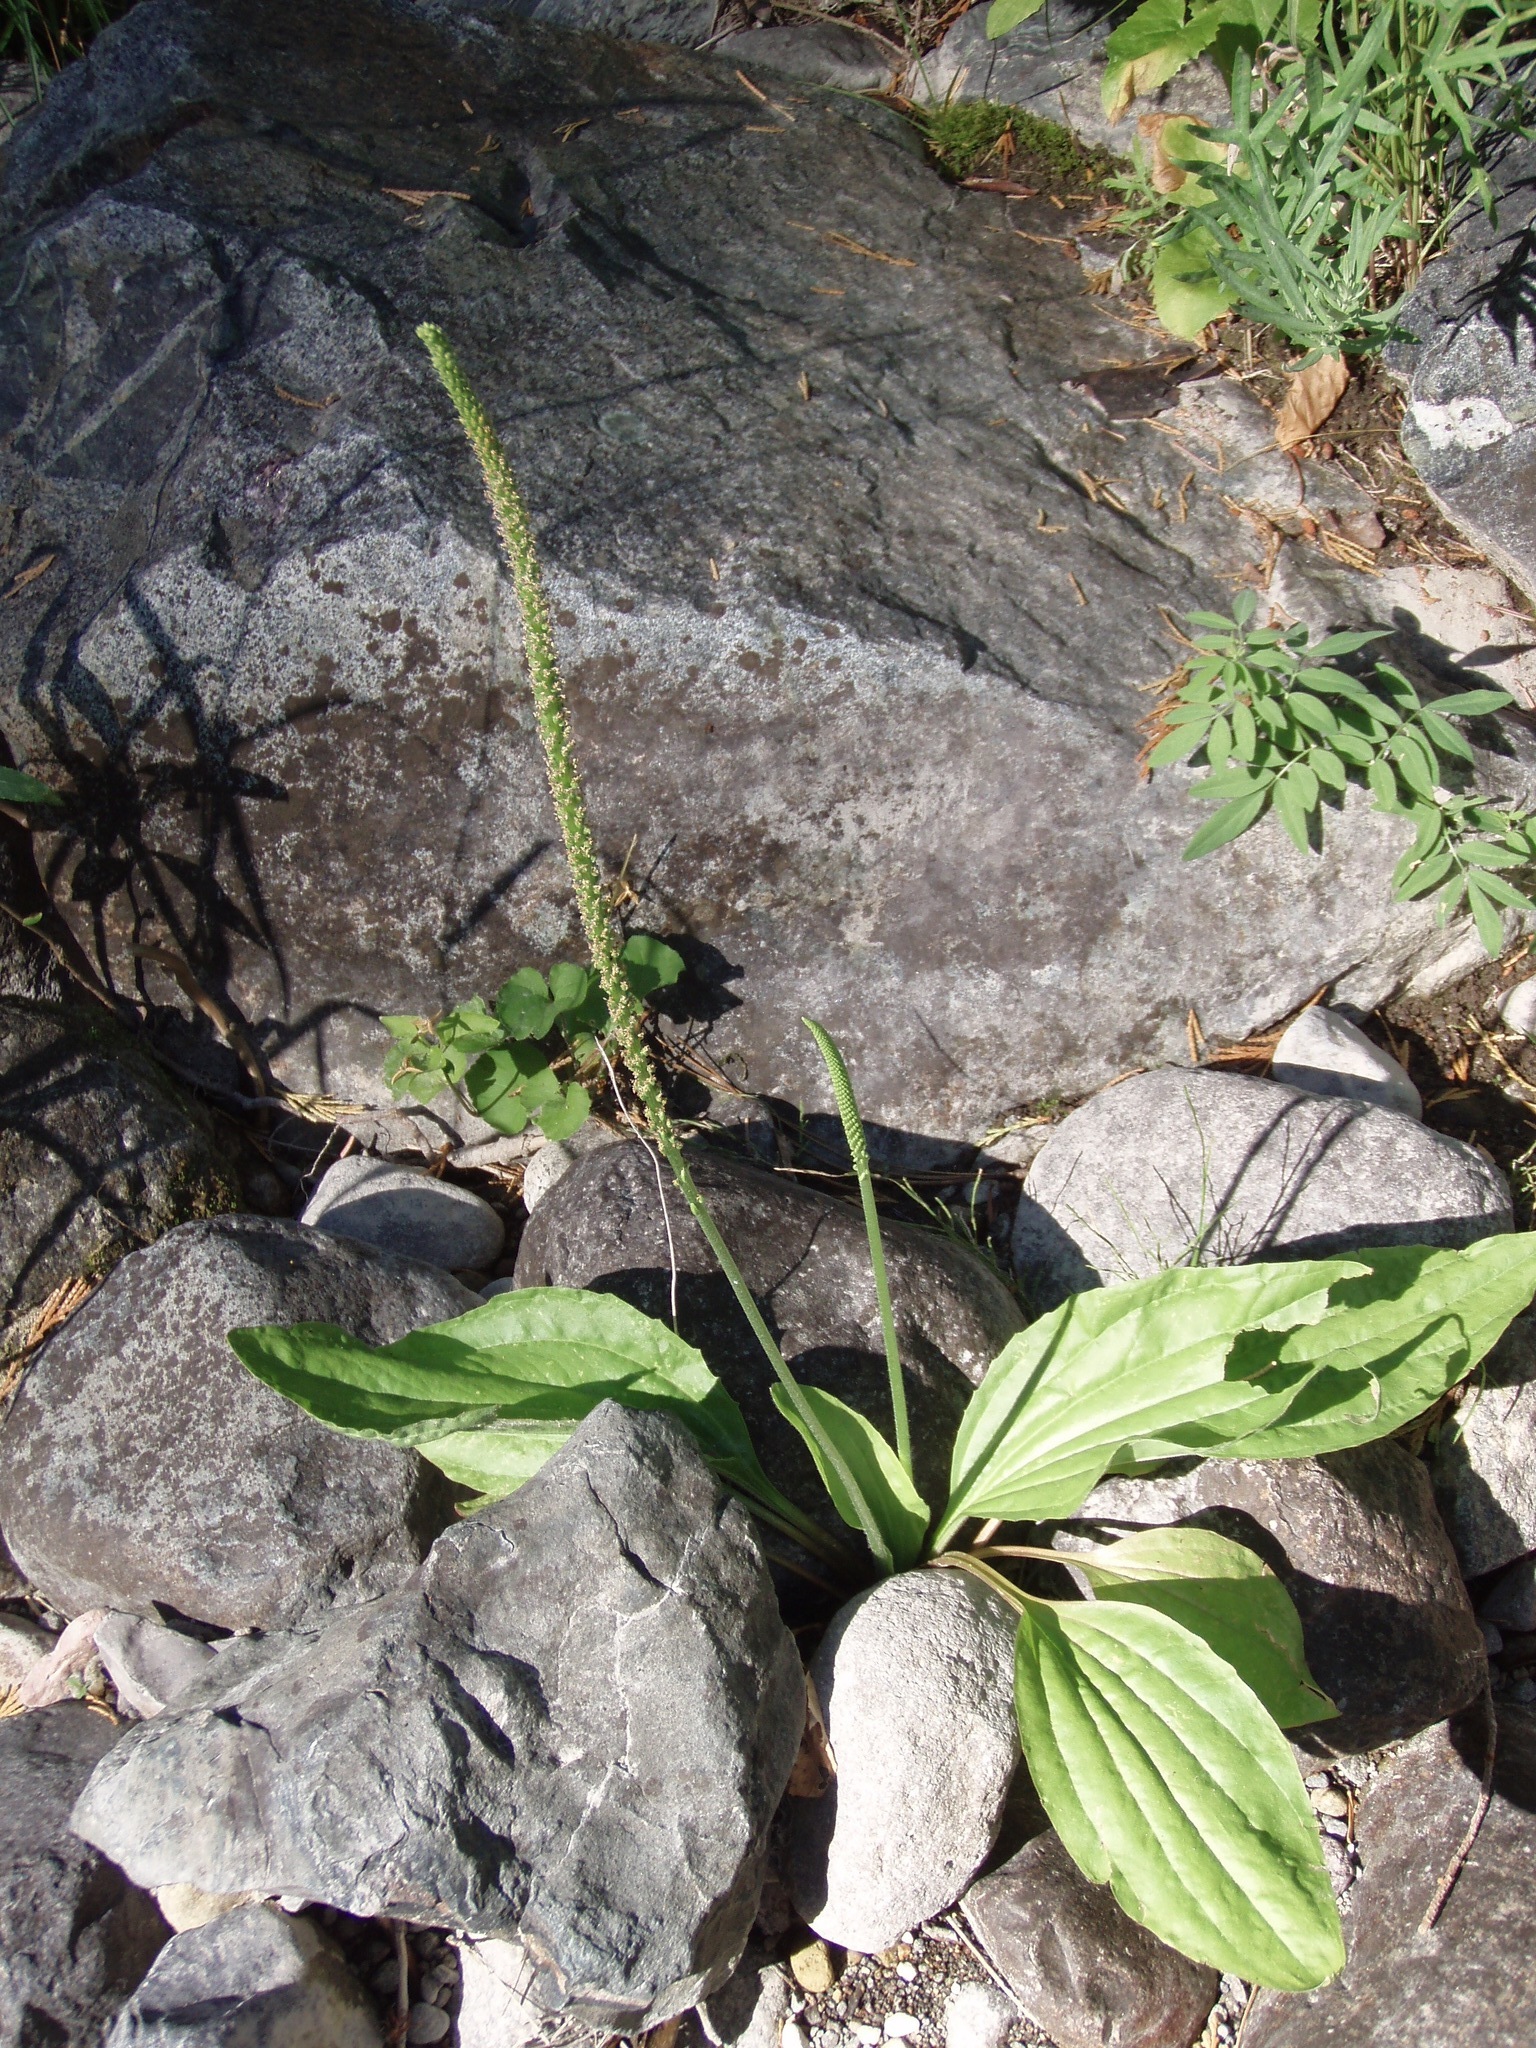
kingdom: Plantae
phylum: Tracheophyta
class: Magnoliopsida
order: Lamiales
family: Plantaginaceae
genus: Plantago
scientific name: Plantago major
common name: Common plantain
